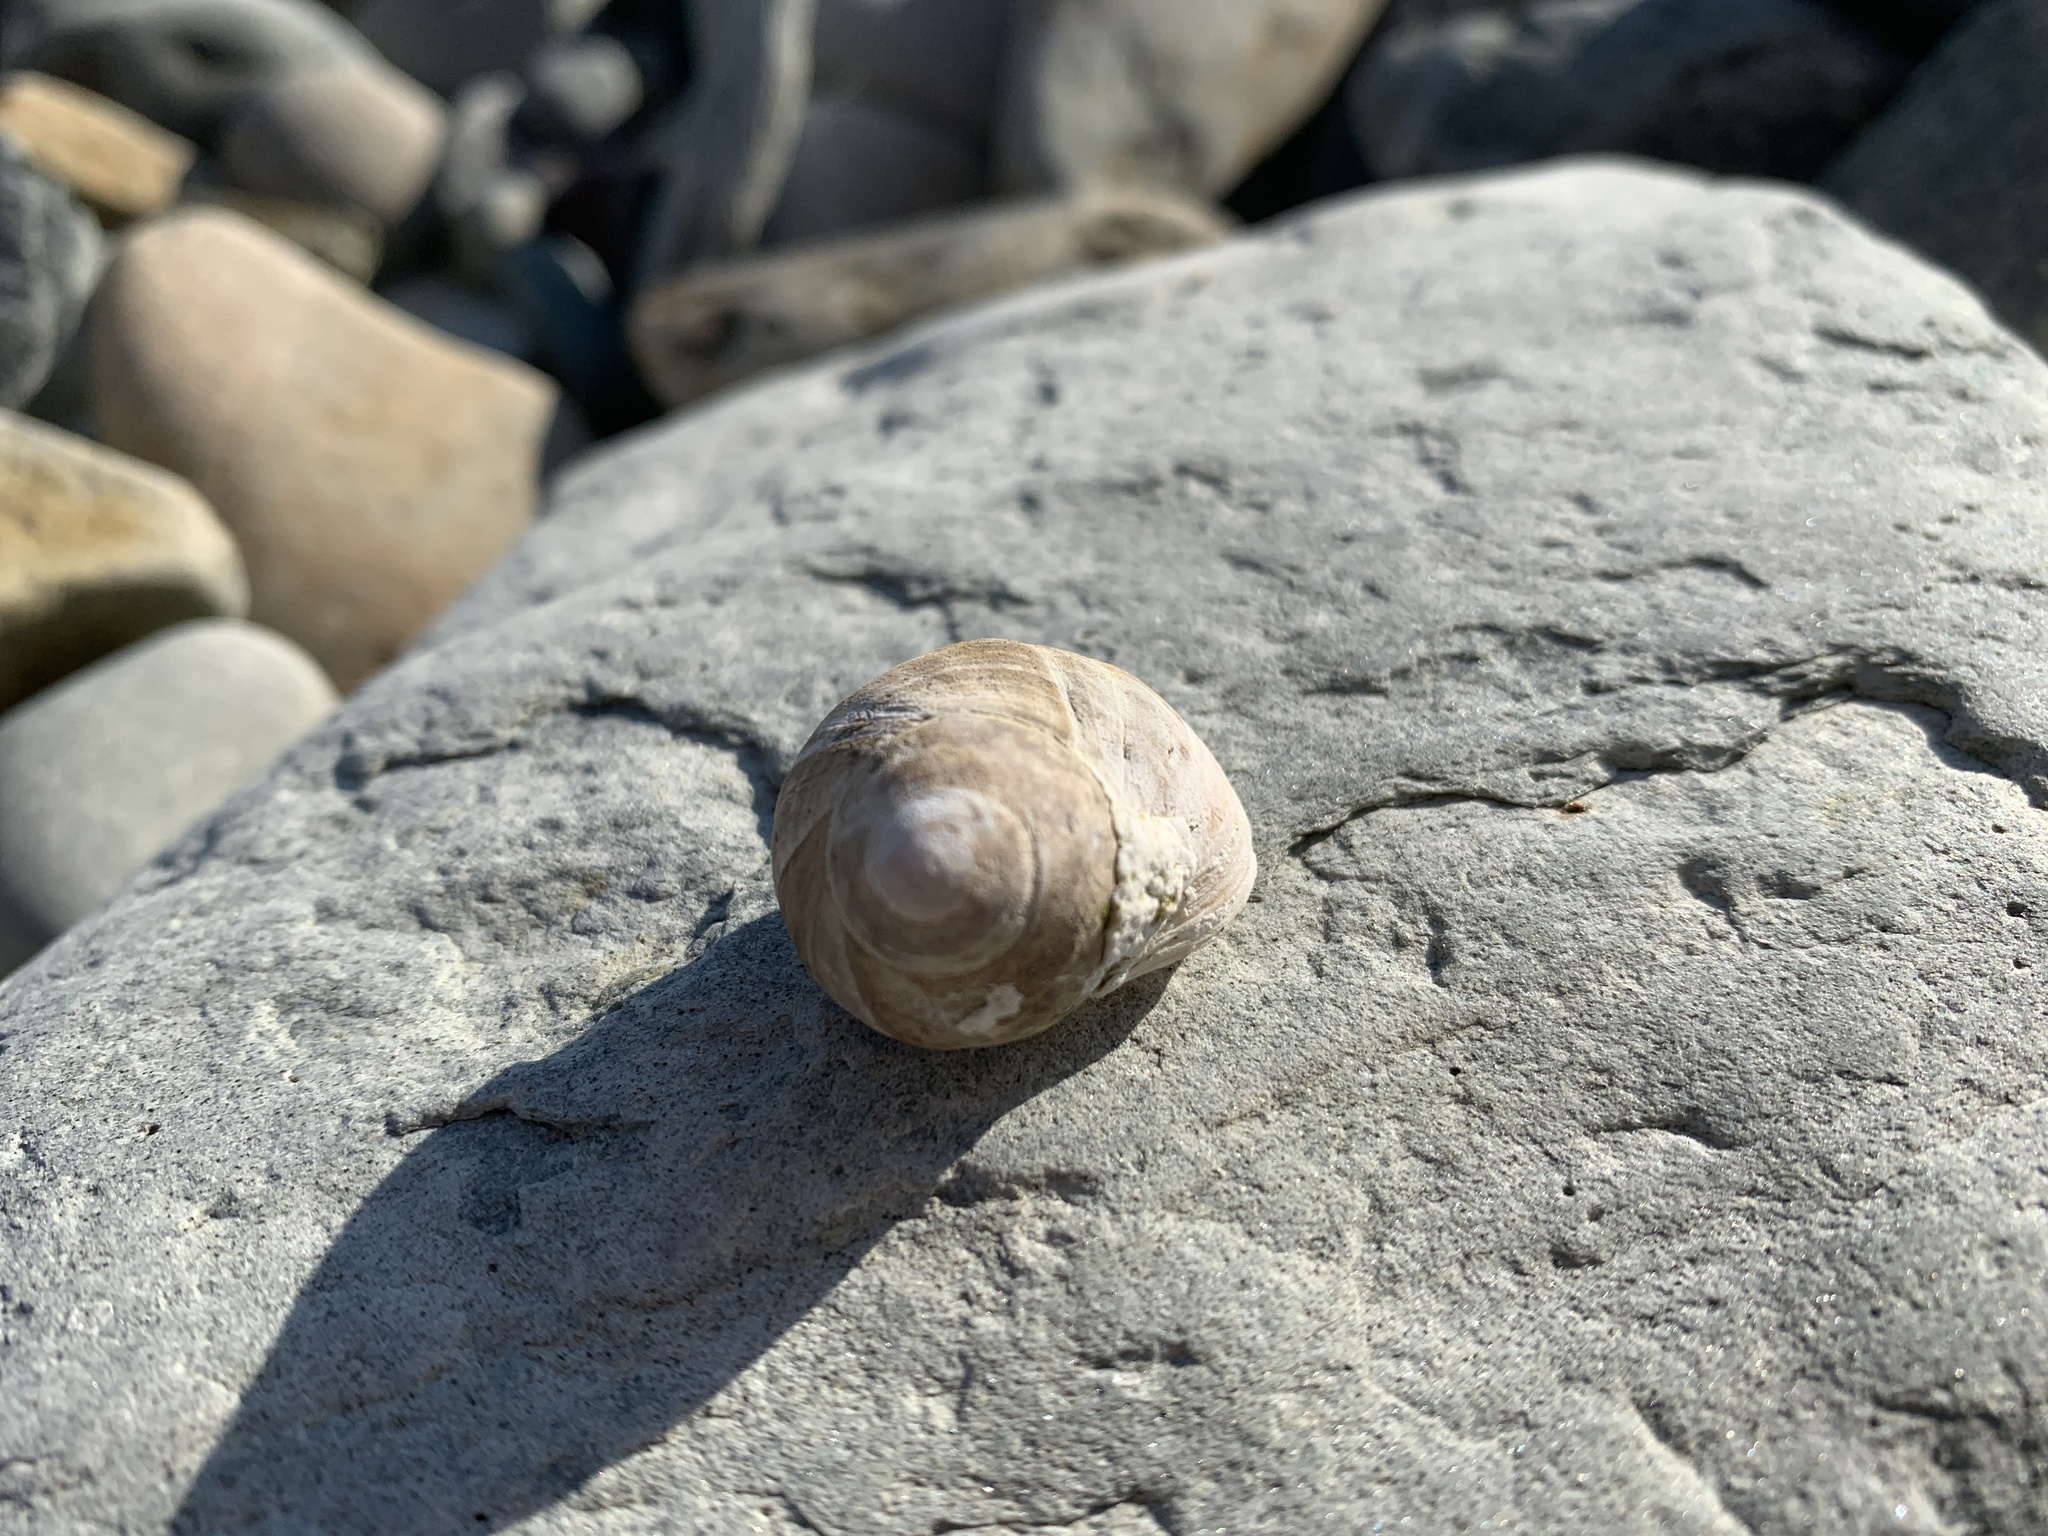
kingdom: Animalia
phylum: Mollusca
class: Gastropoda
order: Littorinimorpha
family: Littorinidae
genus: Littorina
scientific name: Littorina littorea
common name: Common periwinkle
